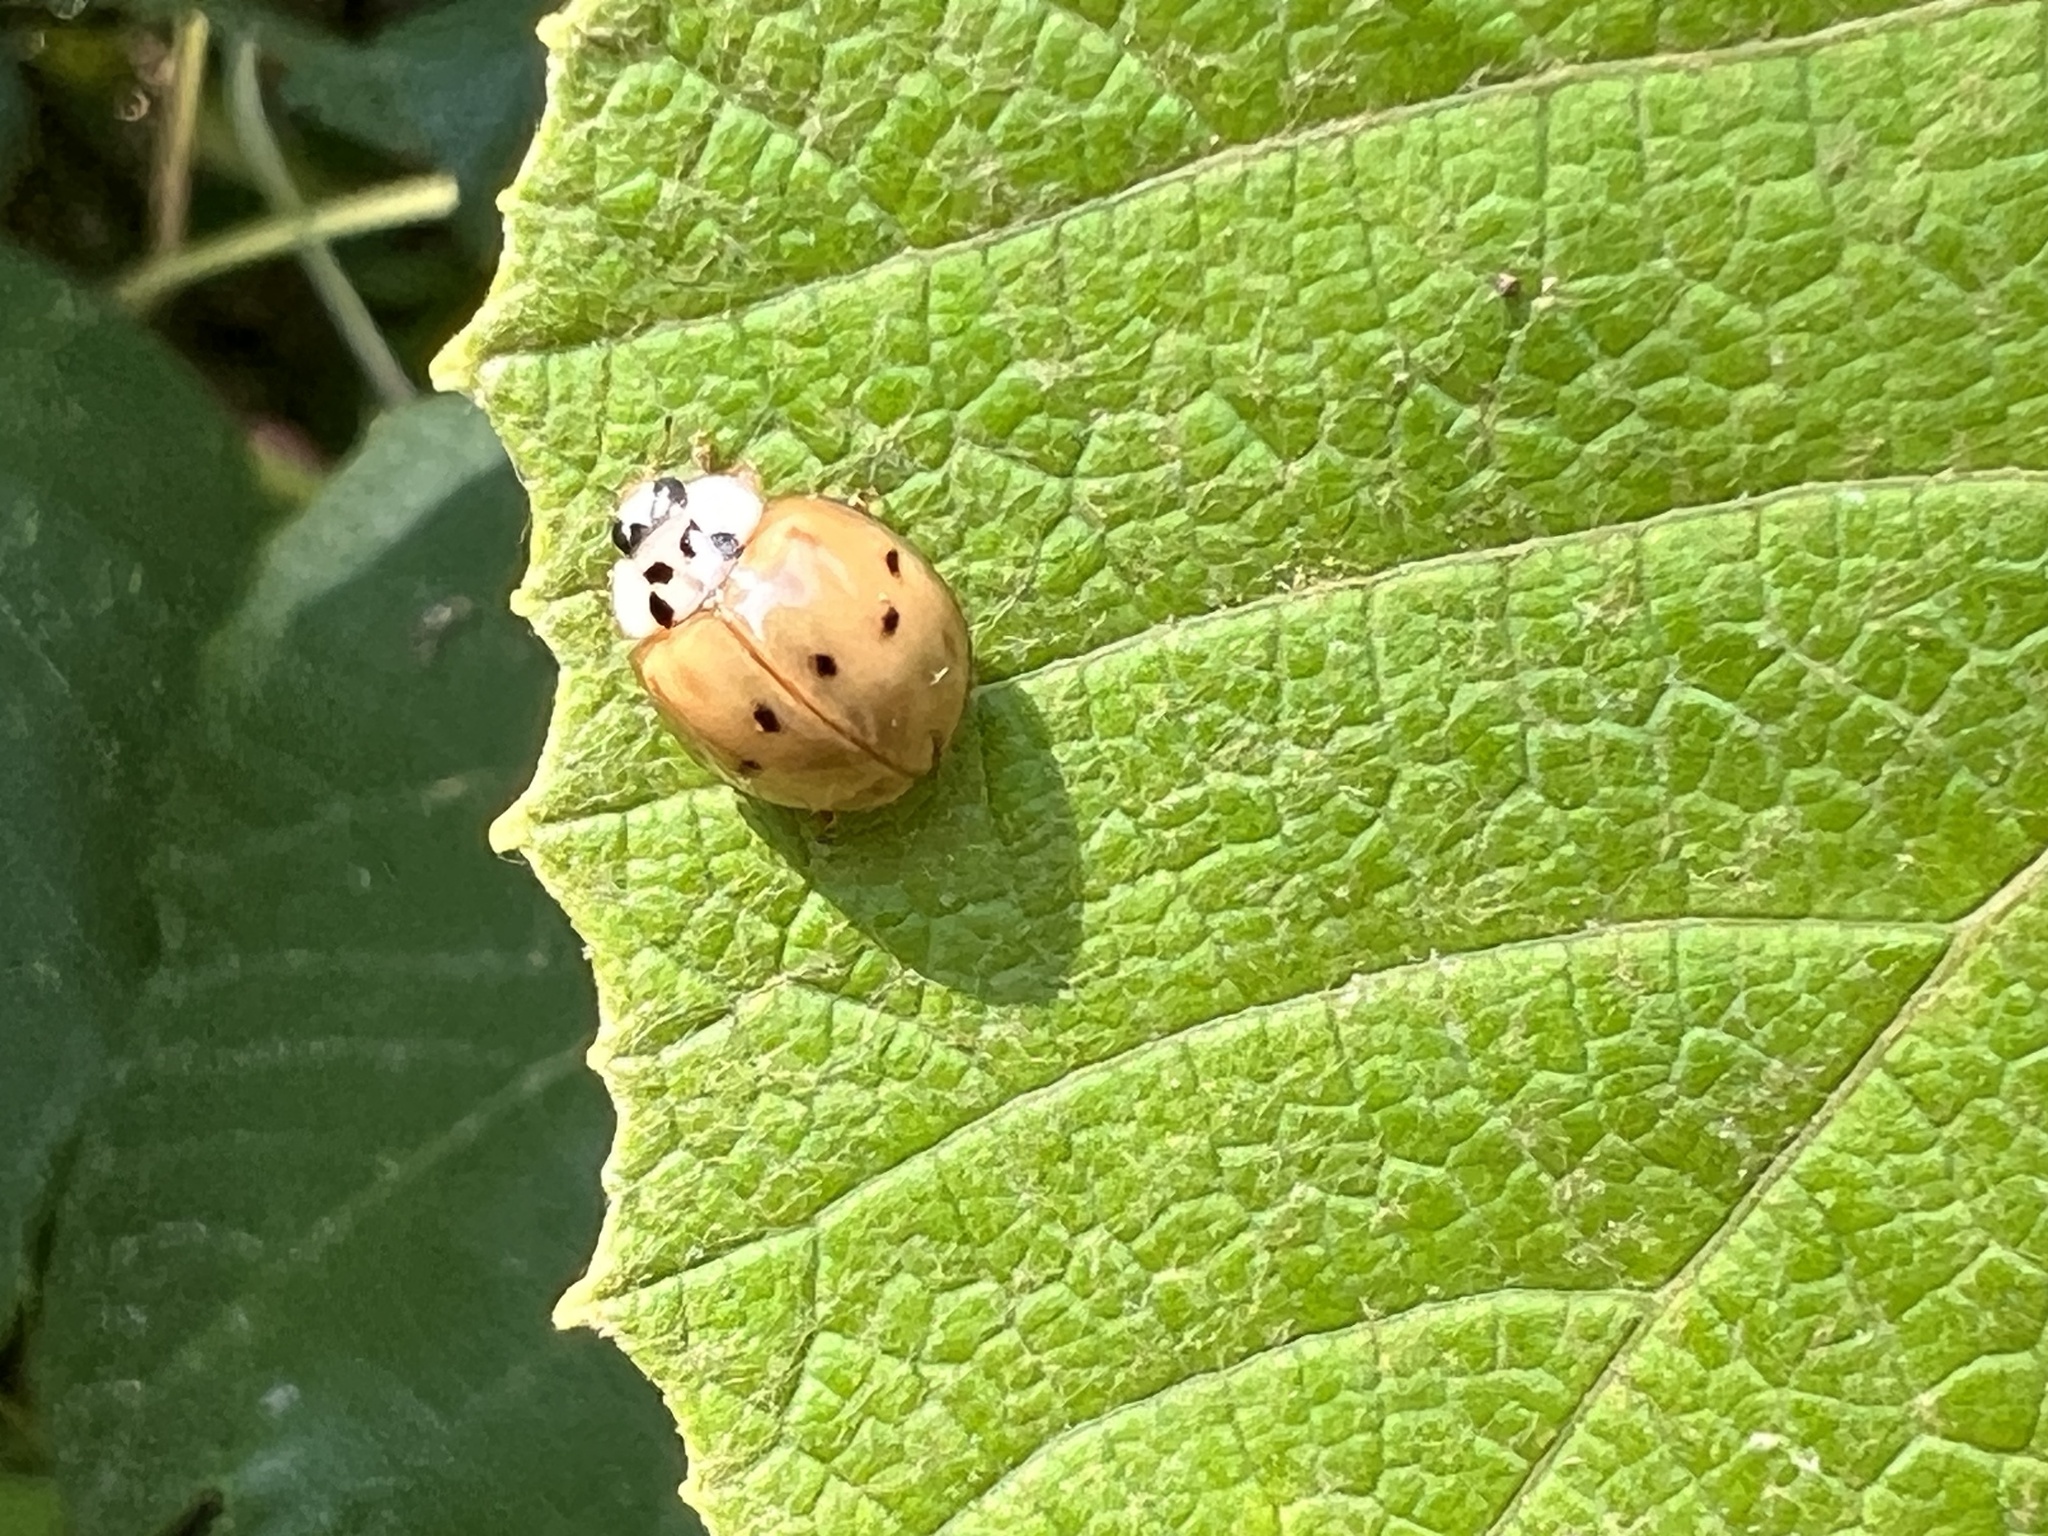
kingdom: Animalia
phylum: Arthropoda
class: Insecta
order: Coleoptera
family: Coccinellidae
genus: Harmonia
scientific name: Harmonia axyridis
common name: Harlequin ladybird
